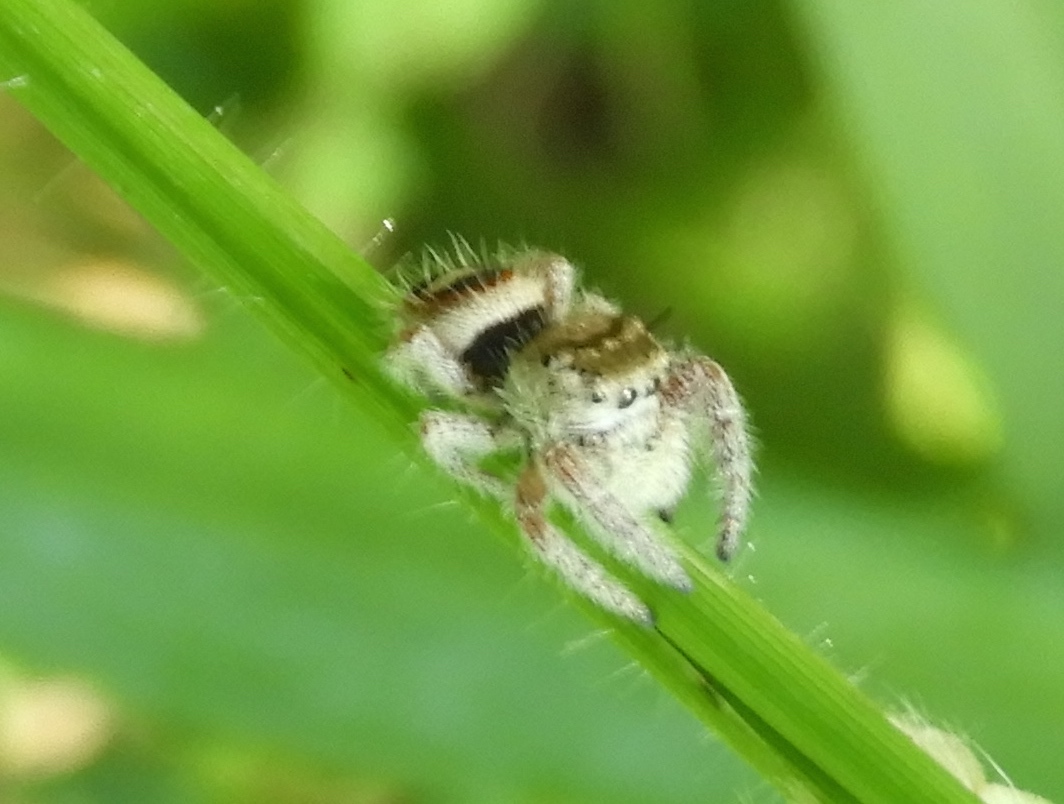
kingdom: Animalia
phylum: Arthropoda
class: Arachnida
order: Araneae
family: Salticidae
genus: Phidippus
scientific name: Phidippus pacosauritus
